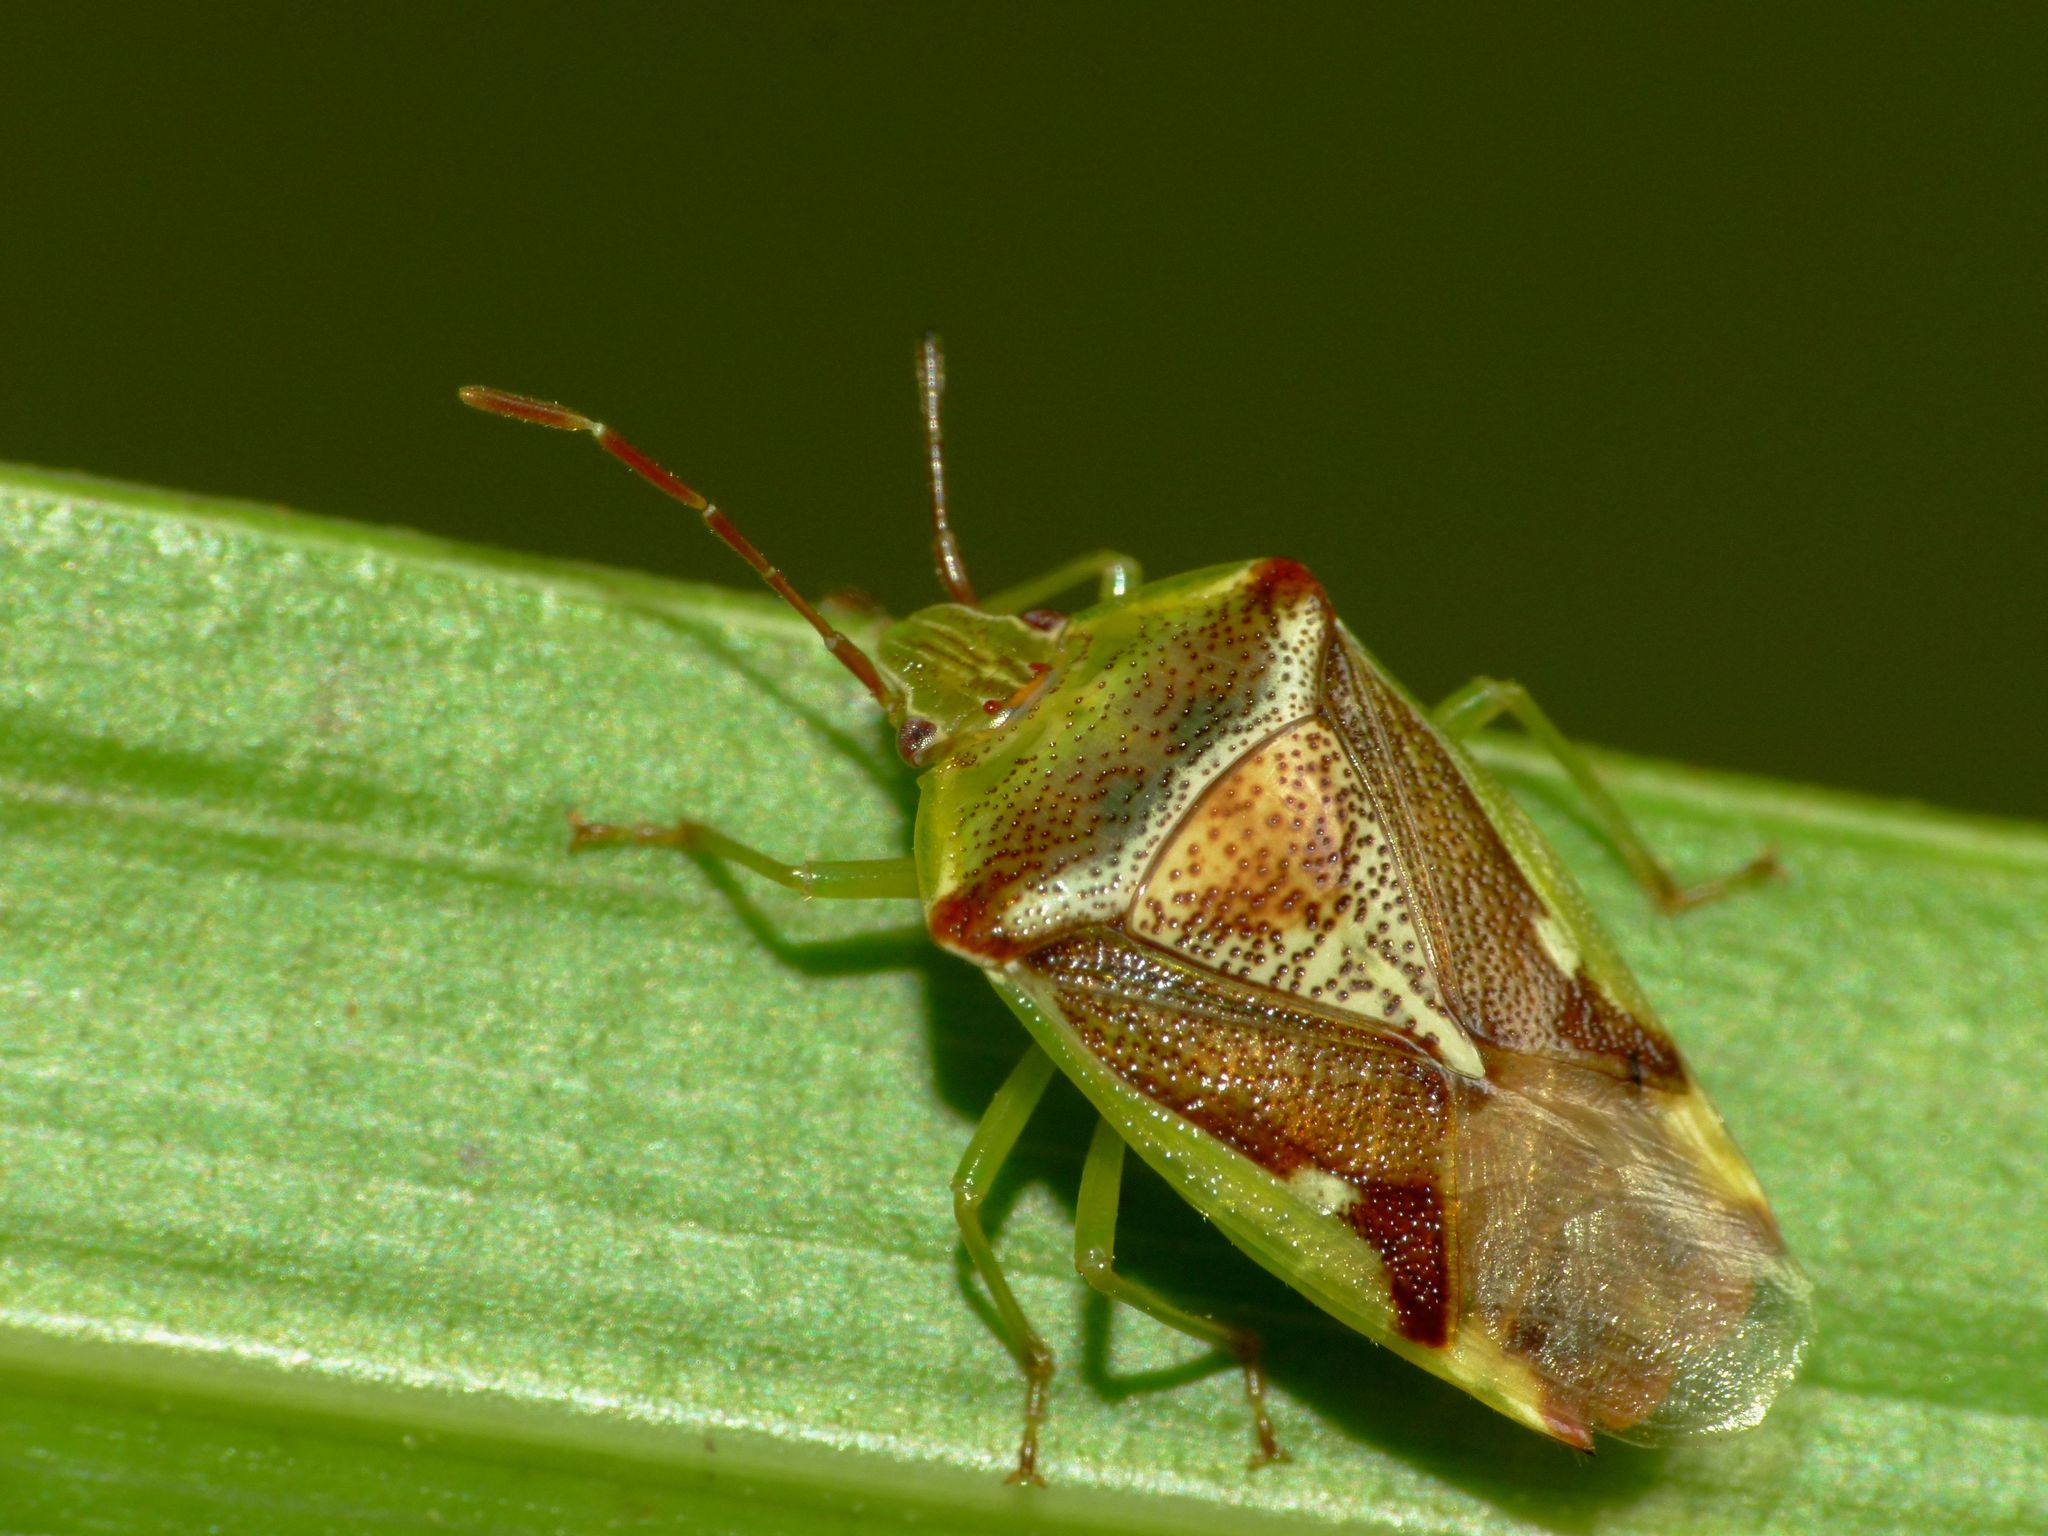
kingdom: Animalia
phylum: Arthropoda
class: Insecta
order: Hemiptera
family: Acanthosomatidae
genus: Oncacontias
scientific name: Oncacontias vittatus
